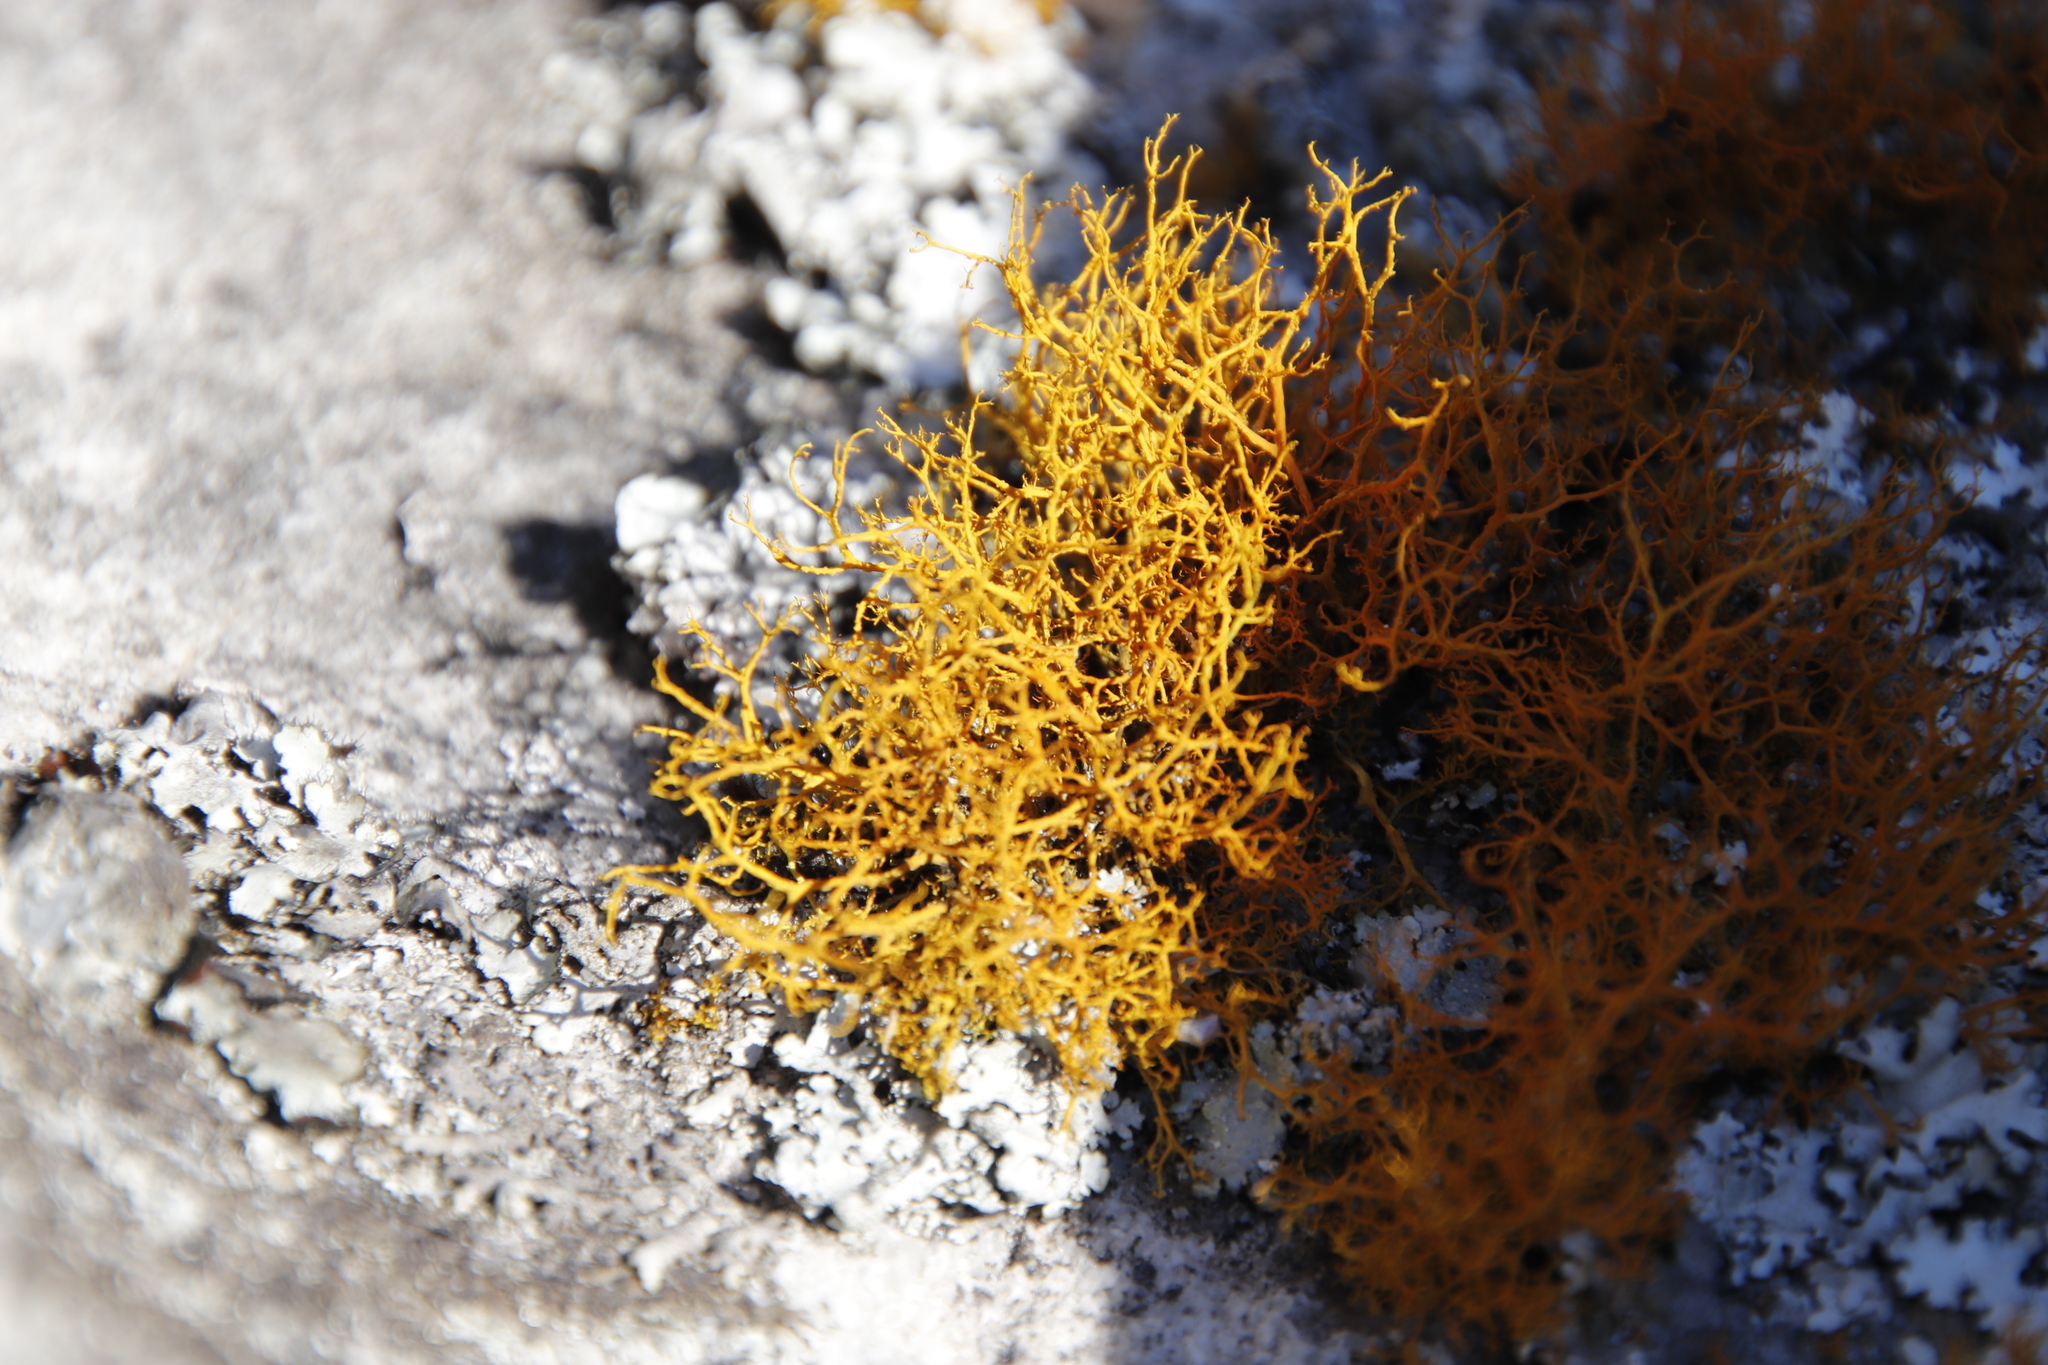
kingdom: Fungi
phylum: Ascomycota
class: Lecanoromycetes
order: Teloschistales
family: Teloschistaceae
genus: Teloschistes
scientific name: Teloschistes flavicans
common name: Golden hair-lichen
